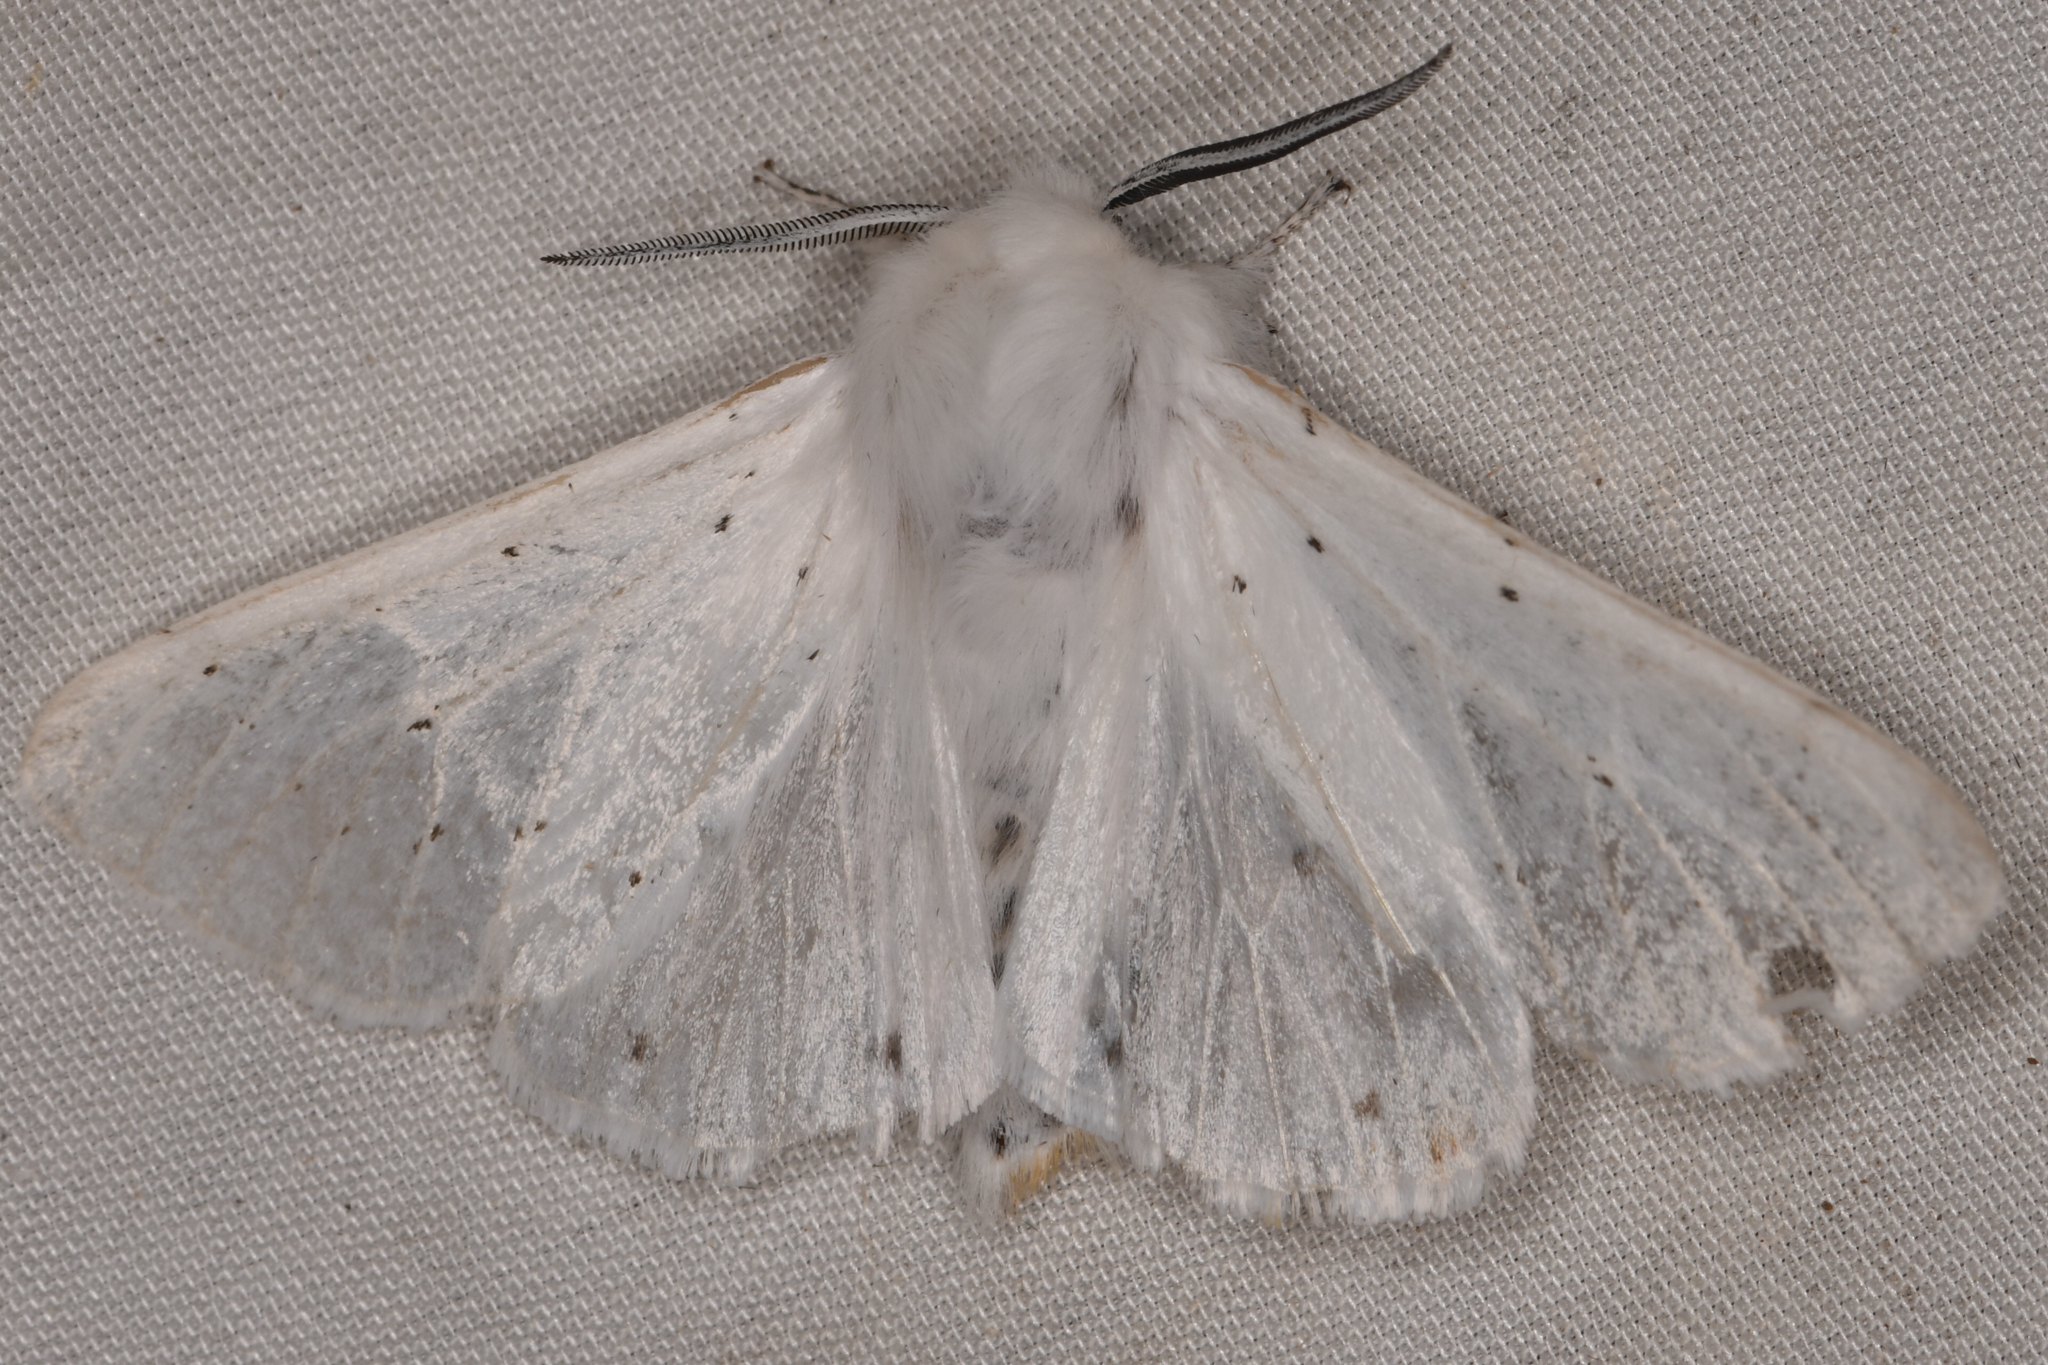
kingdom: Animalia
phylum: Arthropoda
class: Insecta
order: Lepidoptera
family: Erebidae
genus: Spilosoma
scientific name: Spilosoma vestalis
